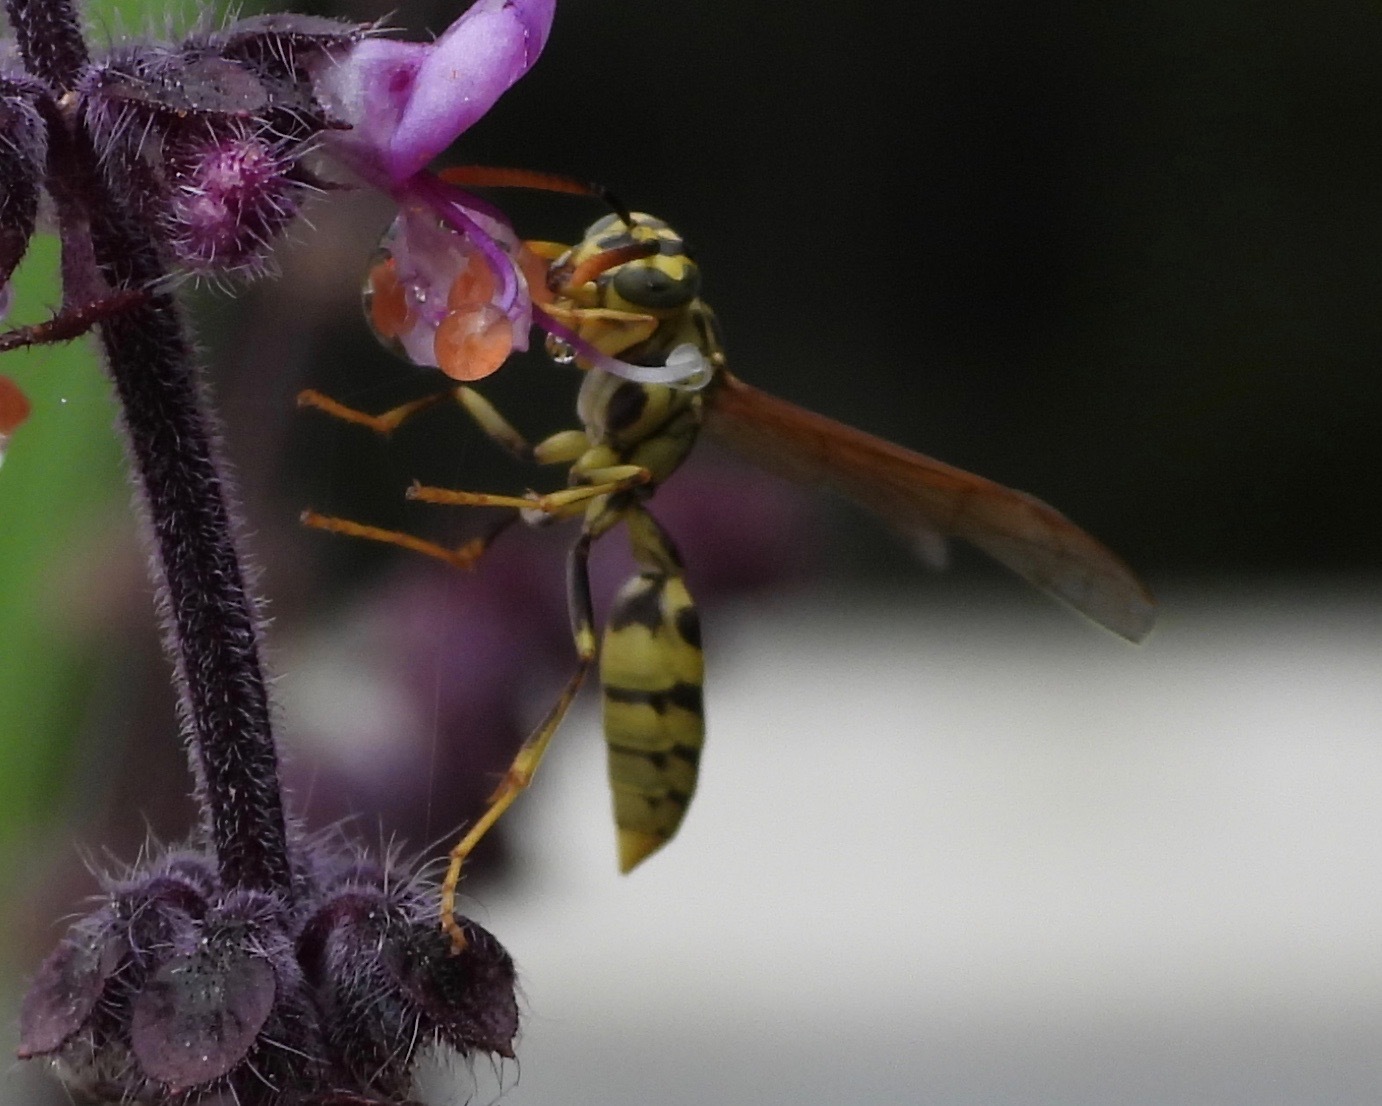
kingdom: Animalia
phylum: Arthropoda
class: Insecta
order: Hymenoptera
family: Vespidae
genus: Agelaia
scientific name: Agelaia areata
